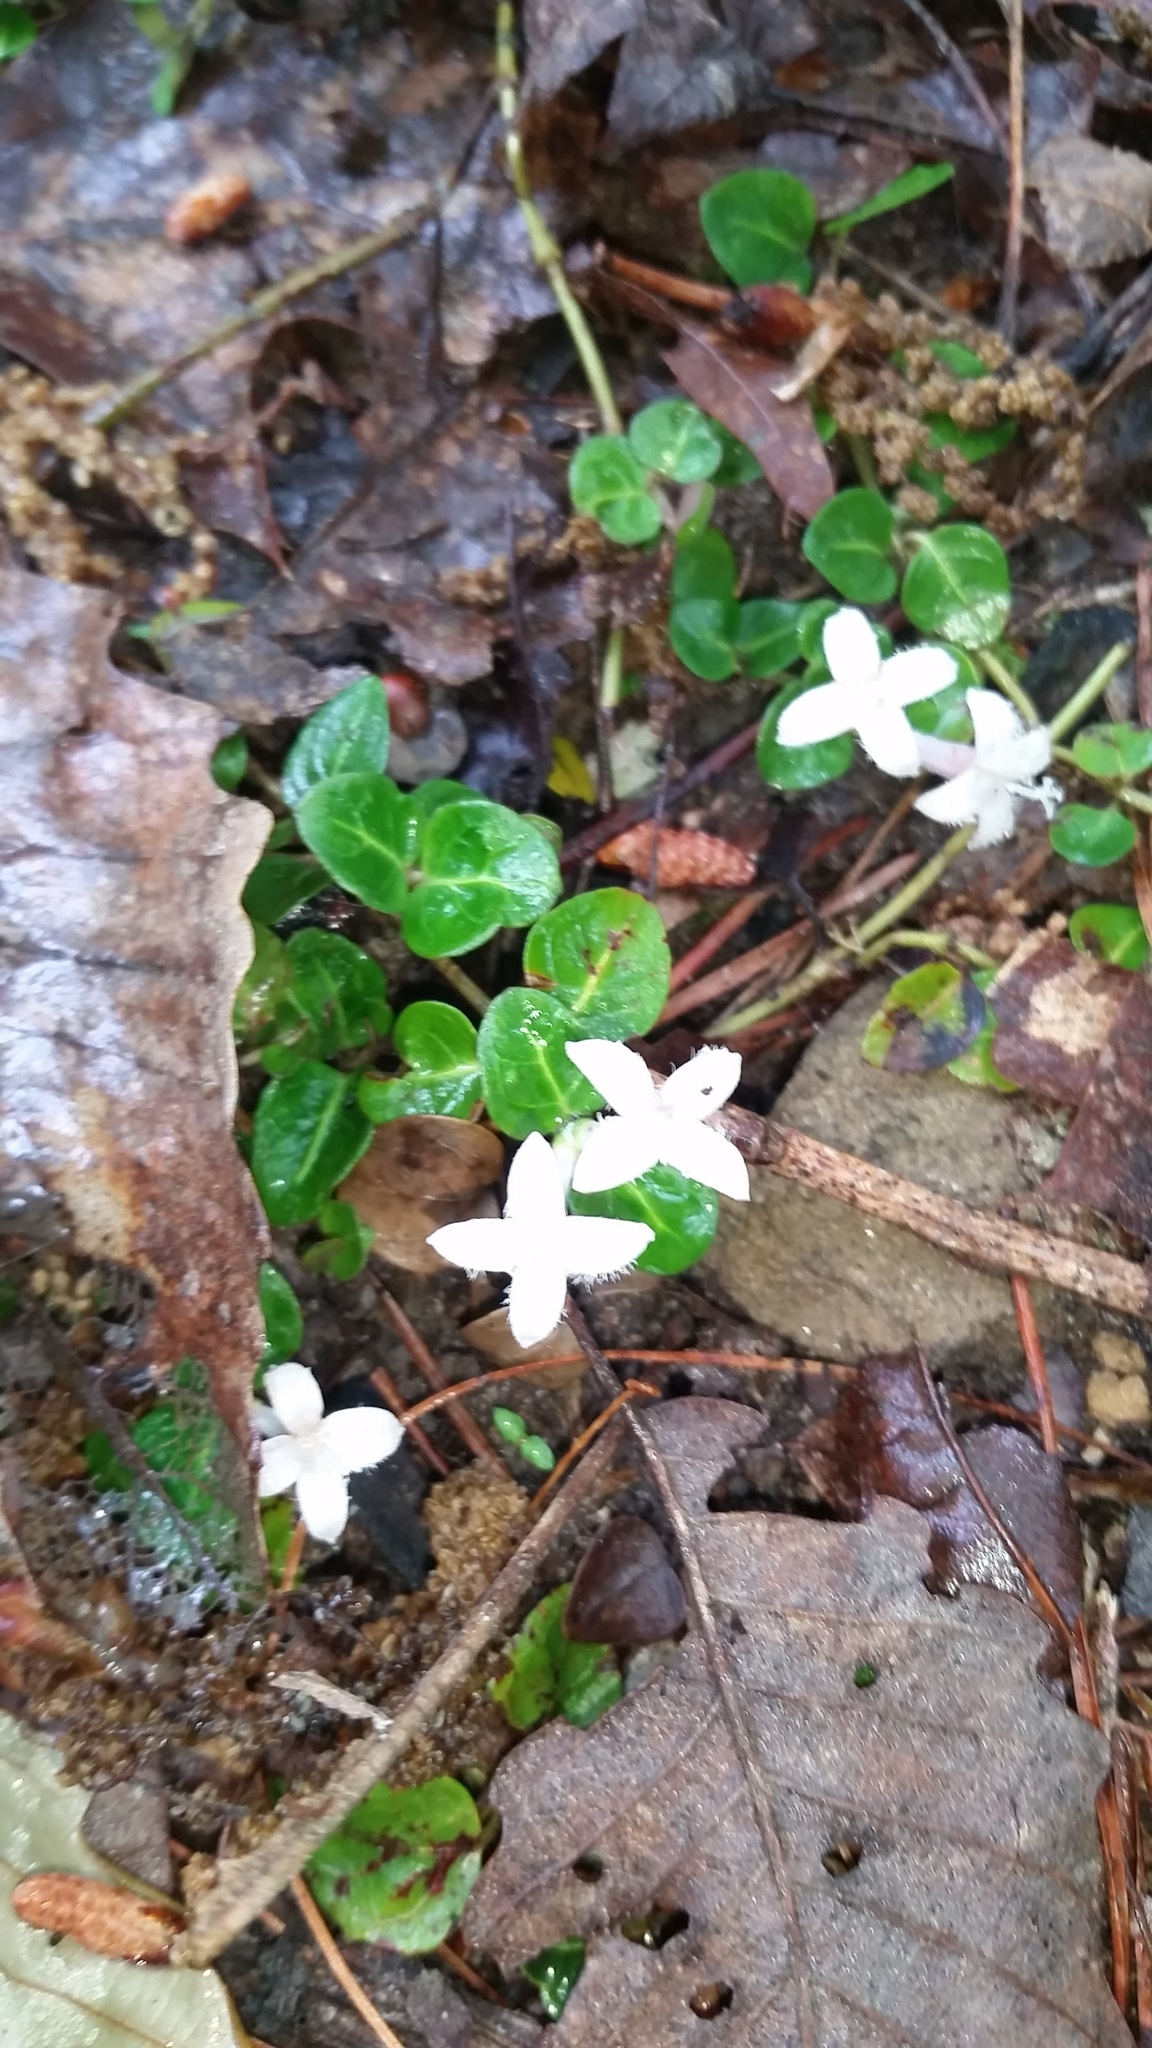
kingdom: Plantae
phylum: Tracheophyta
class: Magnoliopsida
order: Gentianales
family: Rubiaceae
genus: Mitchella
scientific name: Mitchella repens
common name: Partridge-berry
